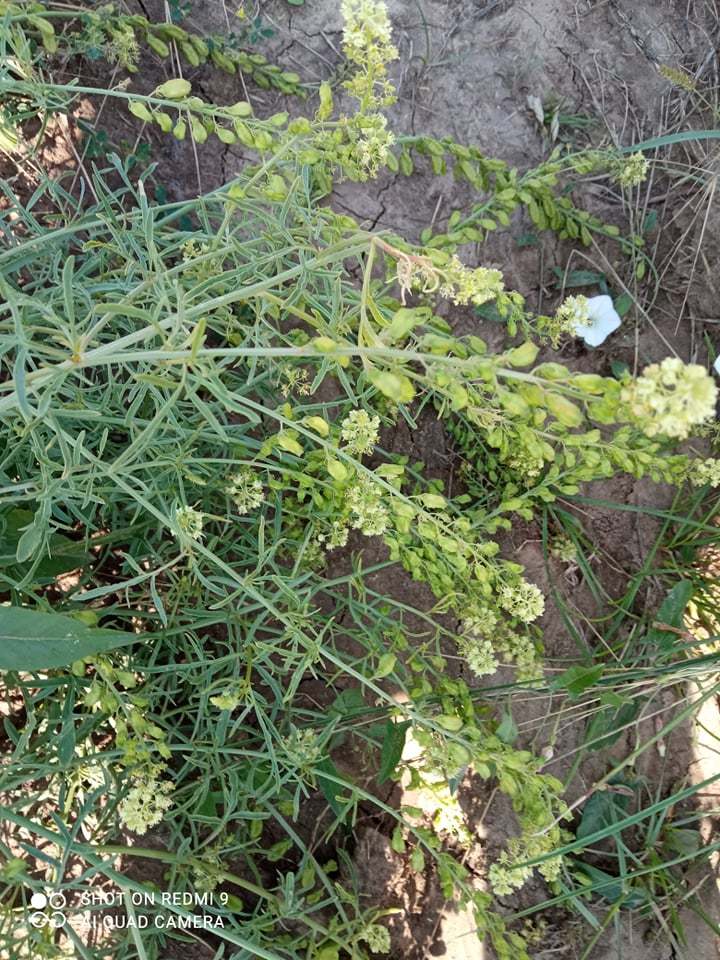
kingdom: Plantae
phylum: Tracheophyta
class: Magnoliopsida
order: Brassicales
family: Resedaceae
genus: Reseda
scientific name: Reseda lutea
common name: Wild mignonette
